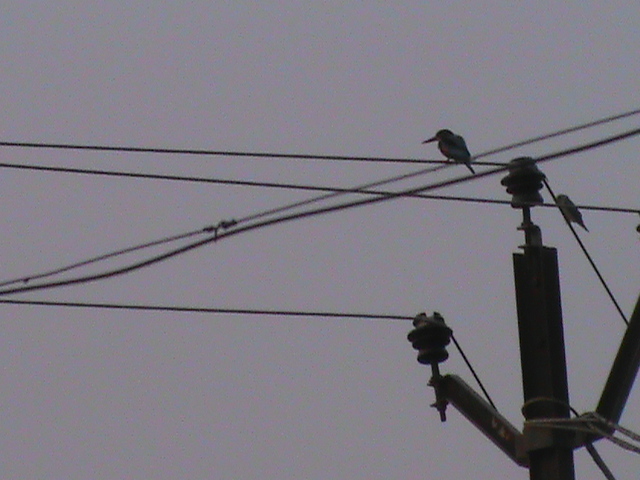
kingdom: Animalia
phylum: Chordata
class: Aves
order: Coraciiformes
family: Alcedinidae
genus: Halcyon
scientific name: Halcyon smyrnensis
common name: White-throated kingfisher
